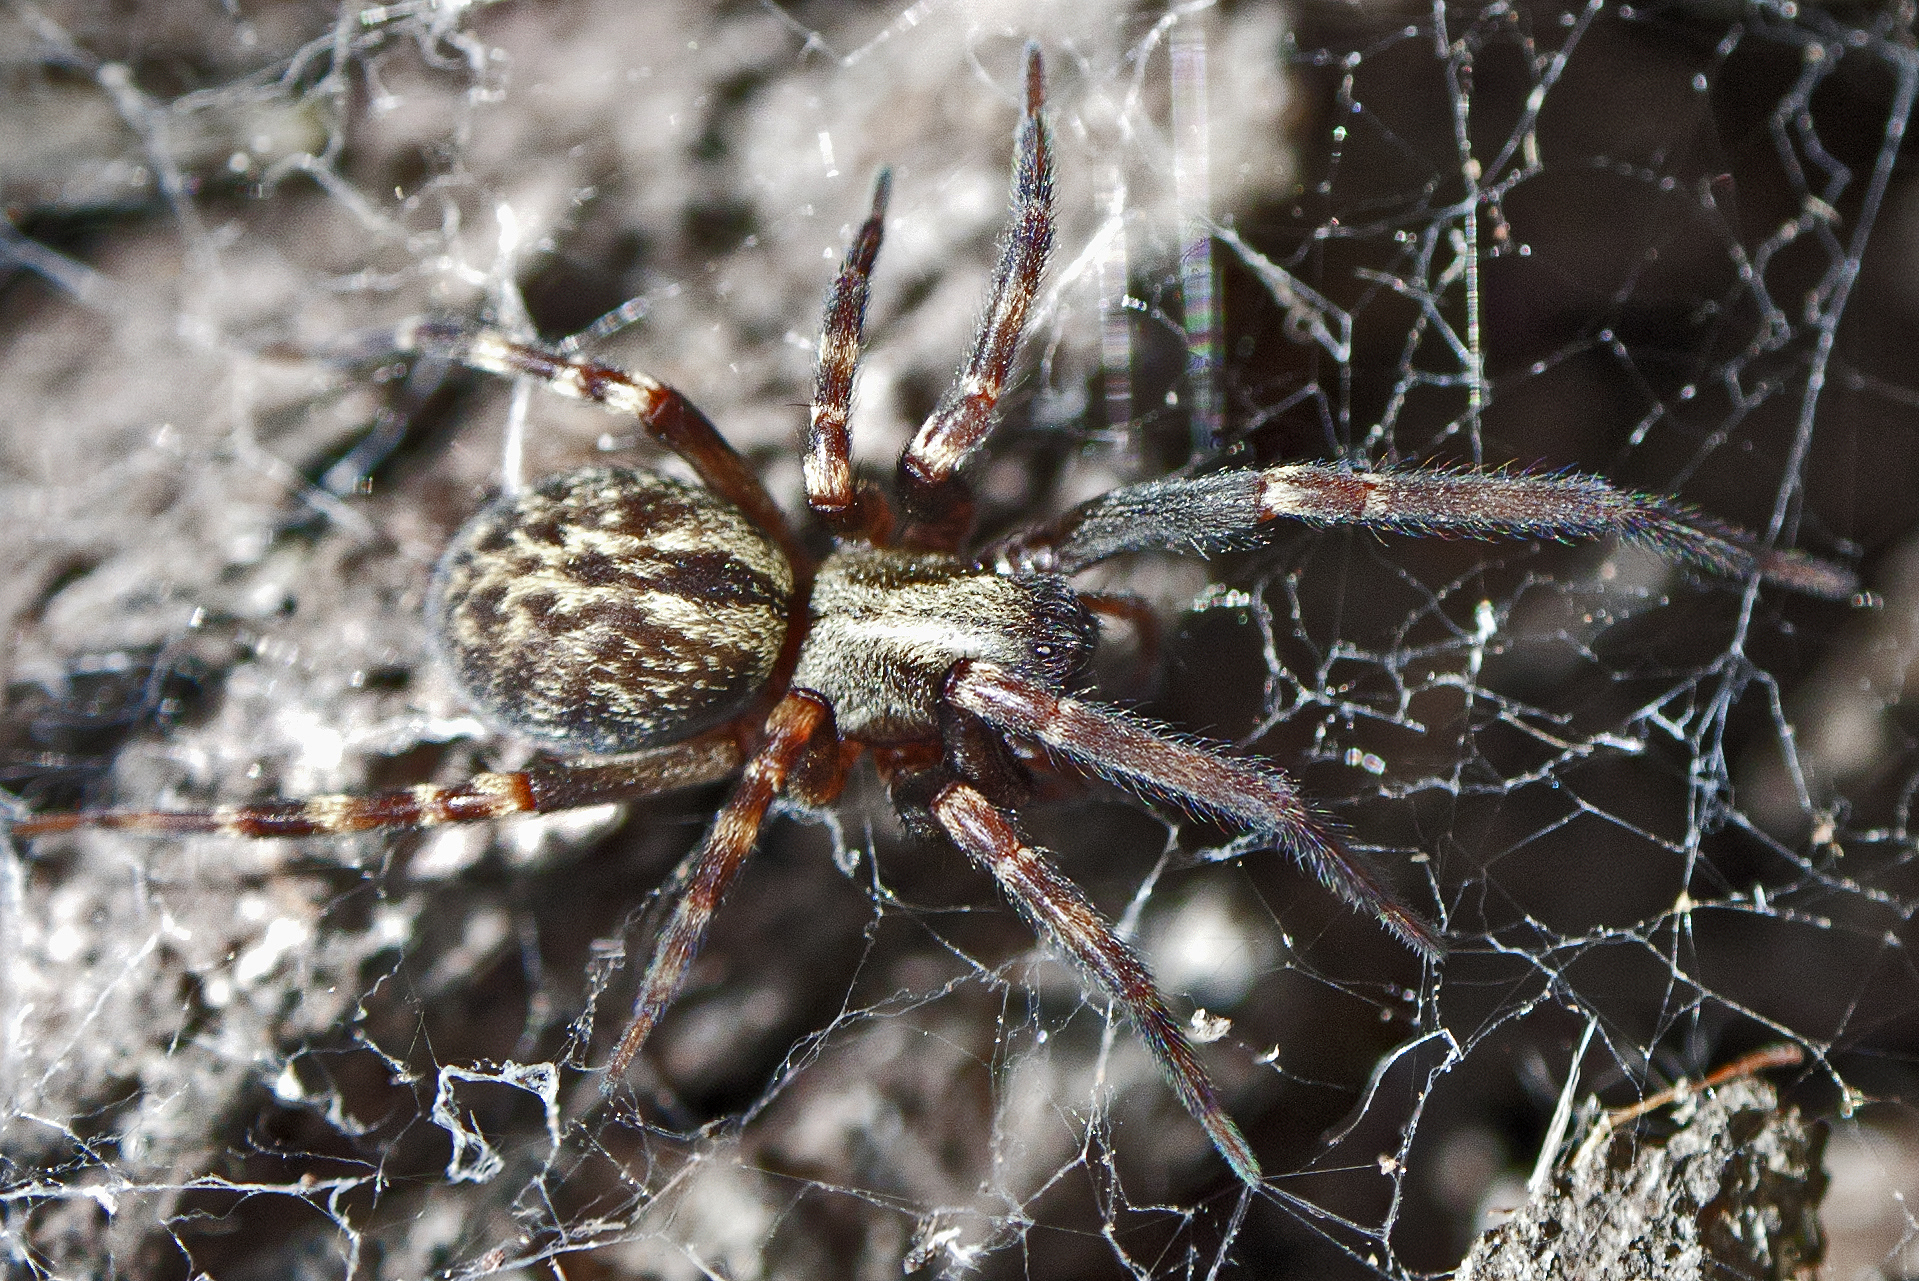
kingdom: Animalia
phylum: Arthropoda
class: Arachnida
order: Araneae
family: Desidae
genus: Badumna
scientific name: Badumna longinqua
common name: Gray house spider
